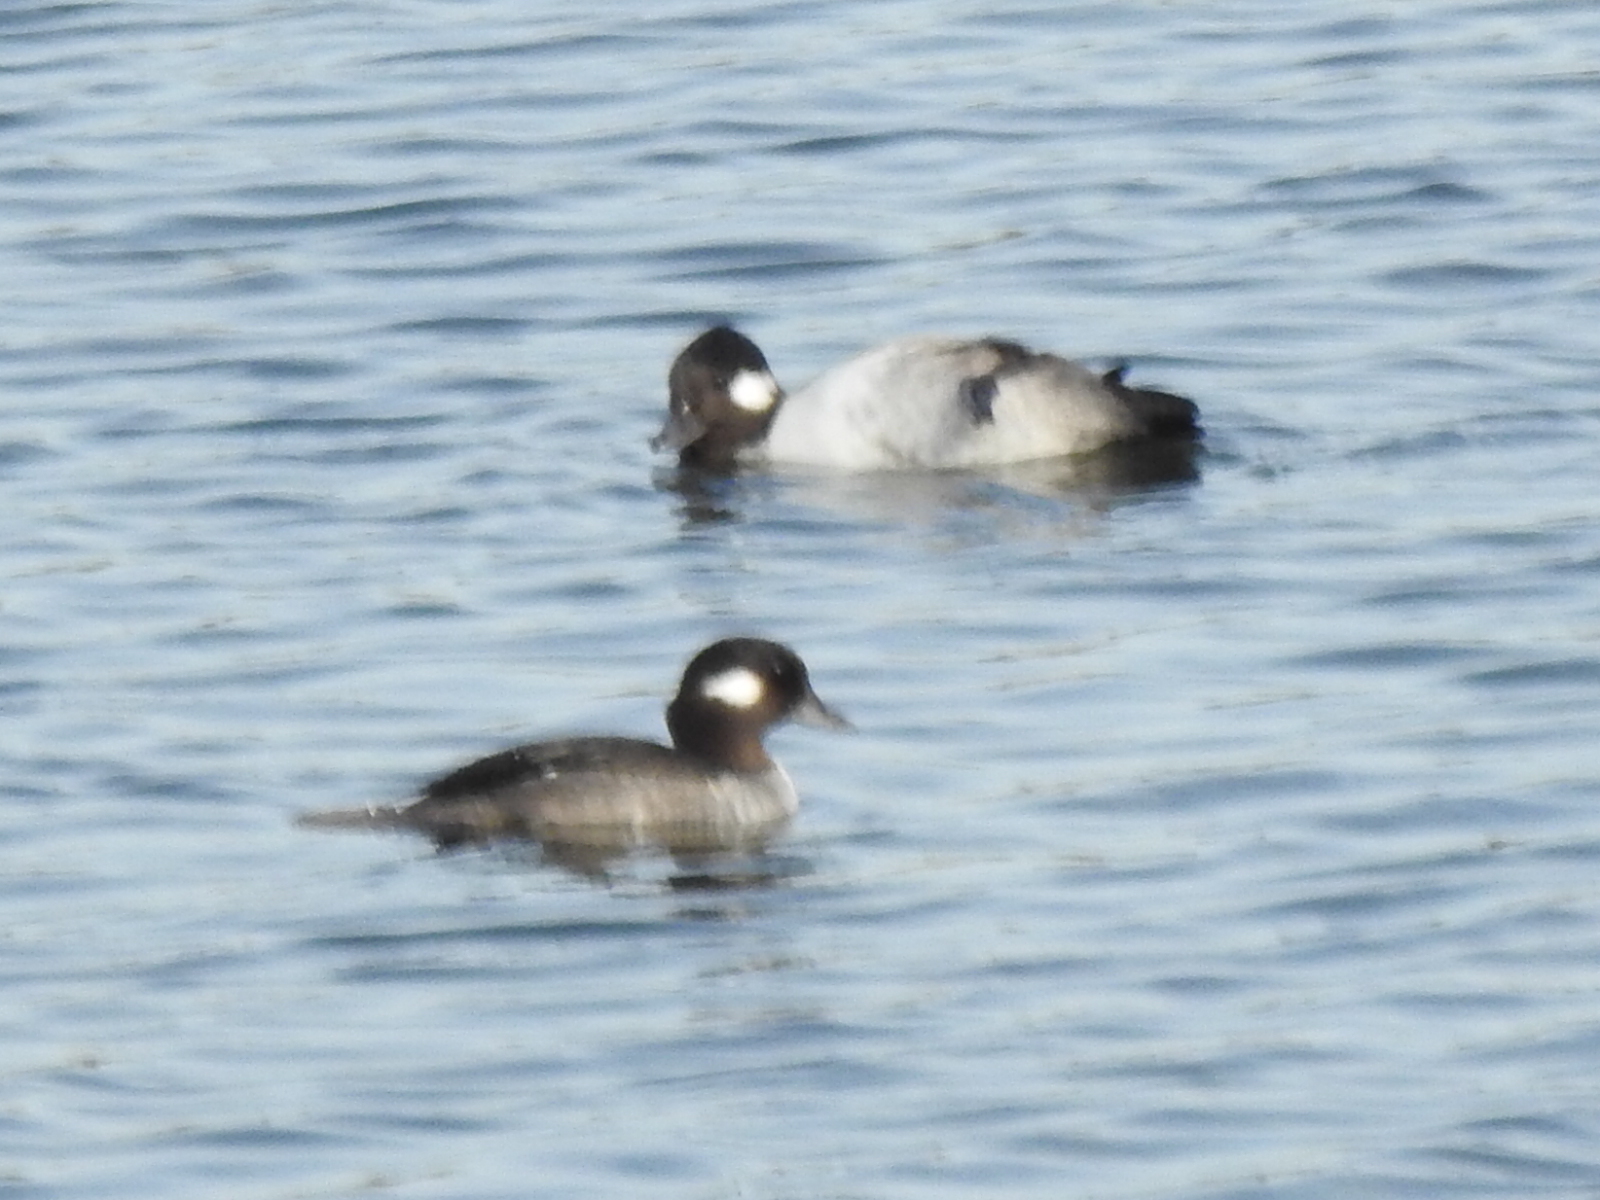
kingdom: Animalia
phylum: Chordata
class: Aves
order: Anseriformes
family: Anatidae
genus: Bucephala
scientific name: Bucephala albeola
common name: Bufflehead
